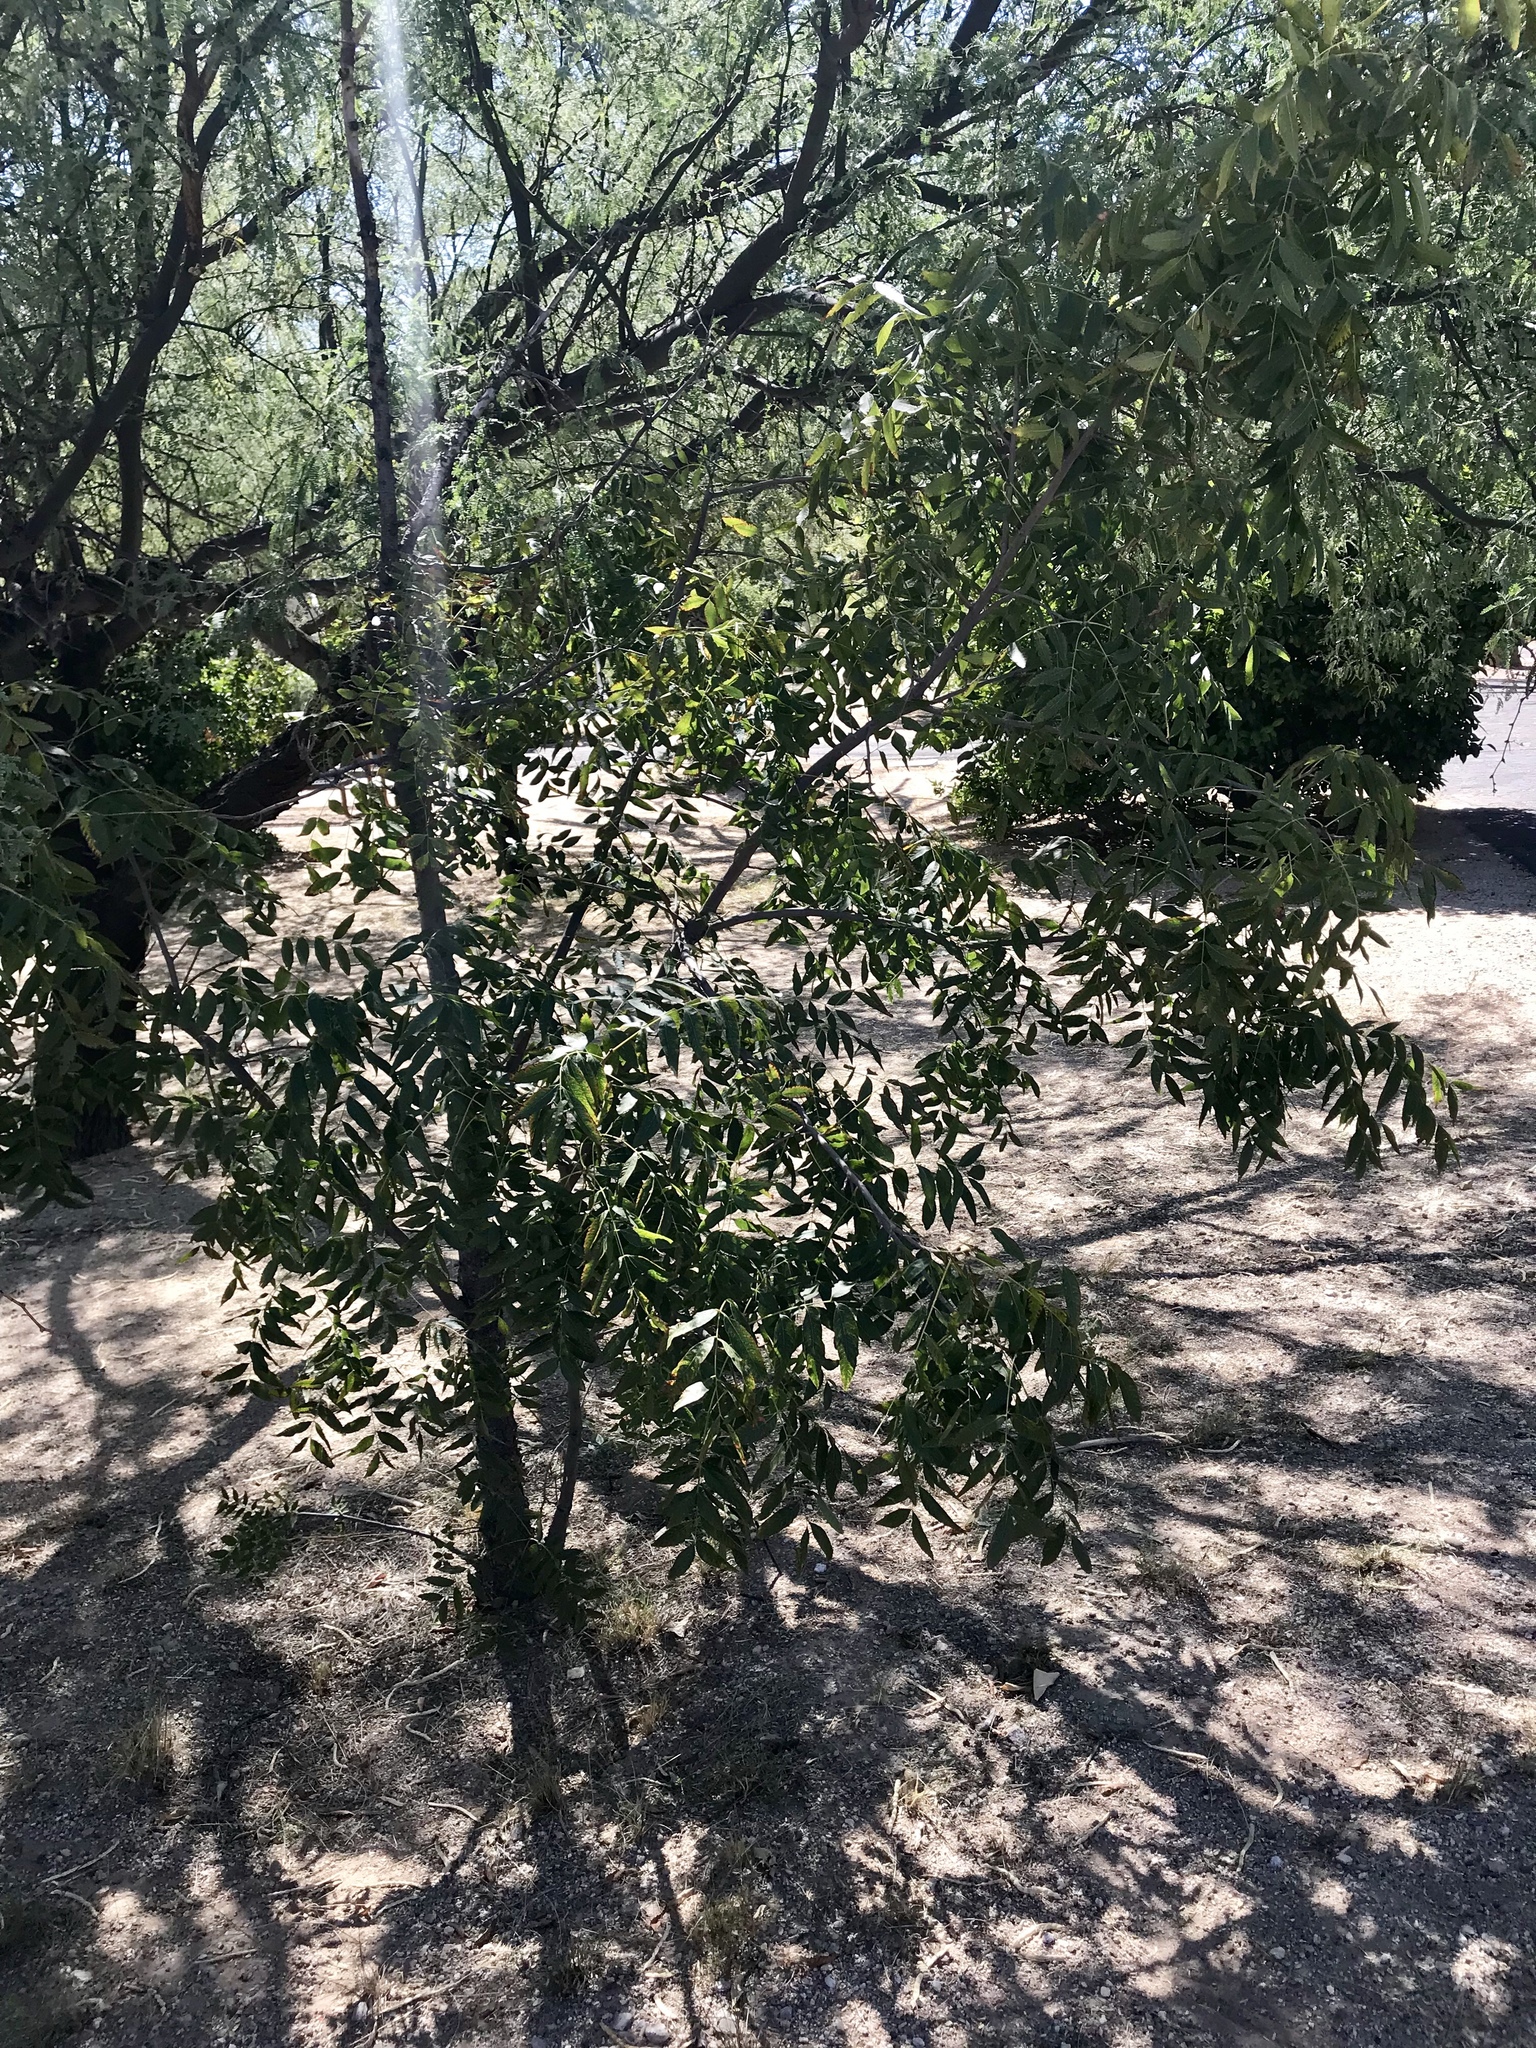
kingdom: Plantae
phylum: Tracheophyta
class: Magnoliopsida
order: Fagales
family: Juglandaceae
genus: Juglans
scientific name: Juglans major
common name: Arizona walnut
